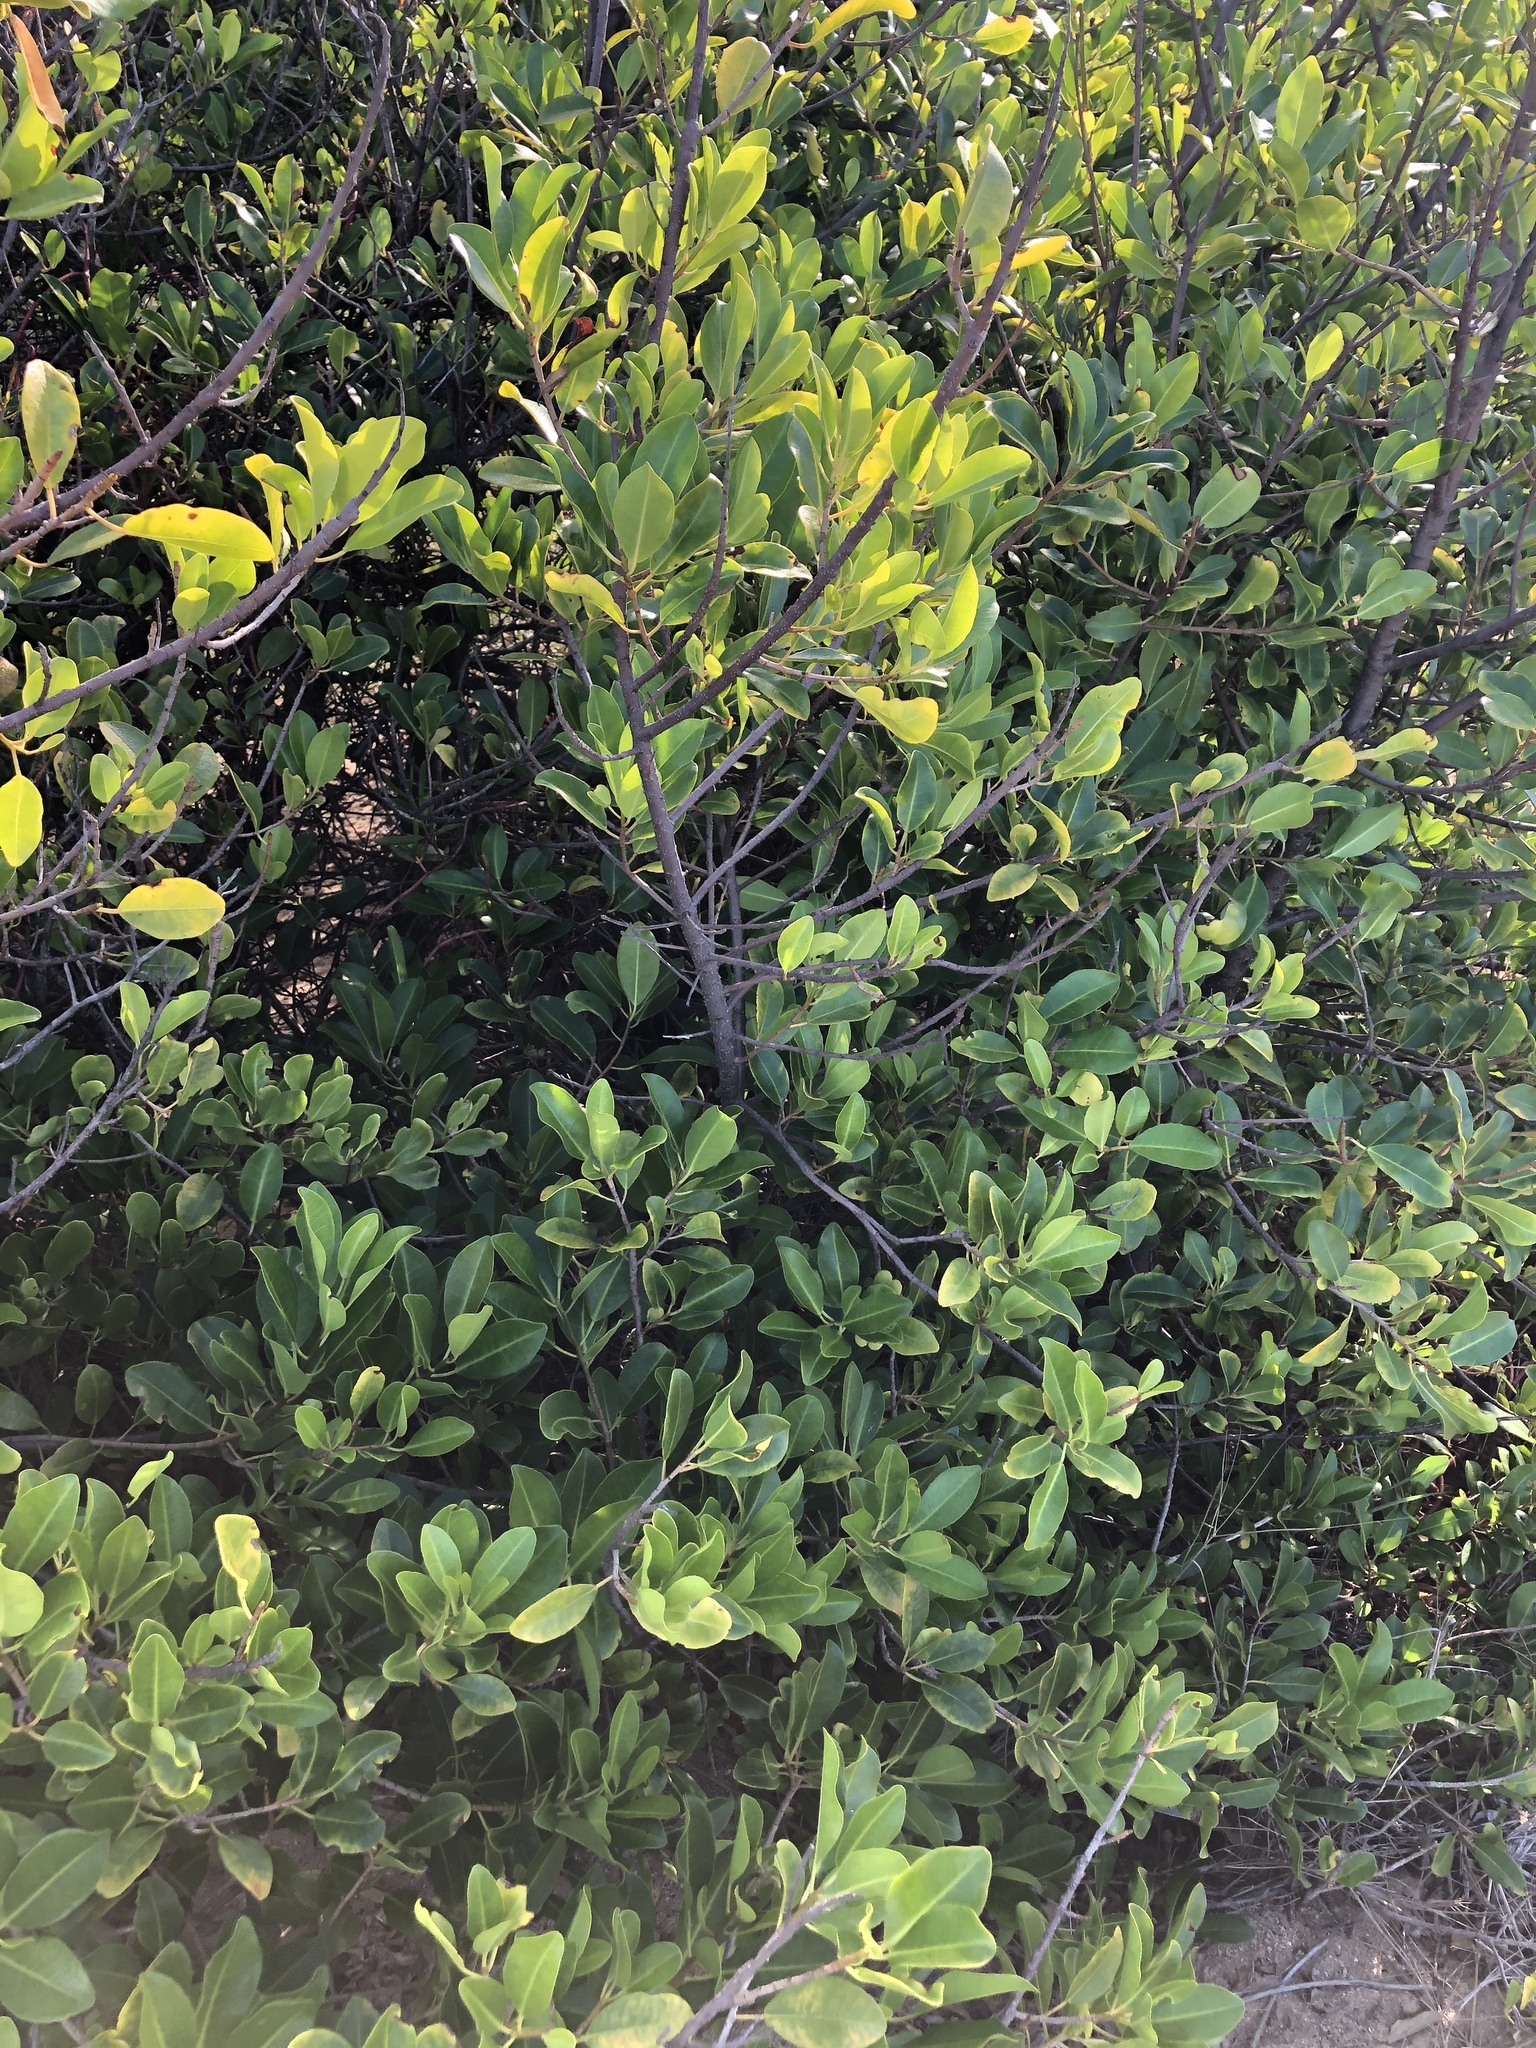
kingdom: Plantae
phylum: Tracheophyta
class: Magnoliopsida
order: Malpighiales
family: Euphorbiaceae
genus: Excoecaria
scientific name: Excoecaria agallocha
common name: River poisontree
